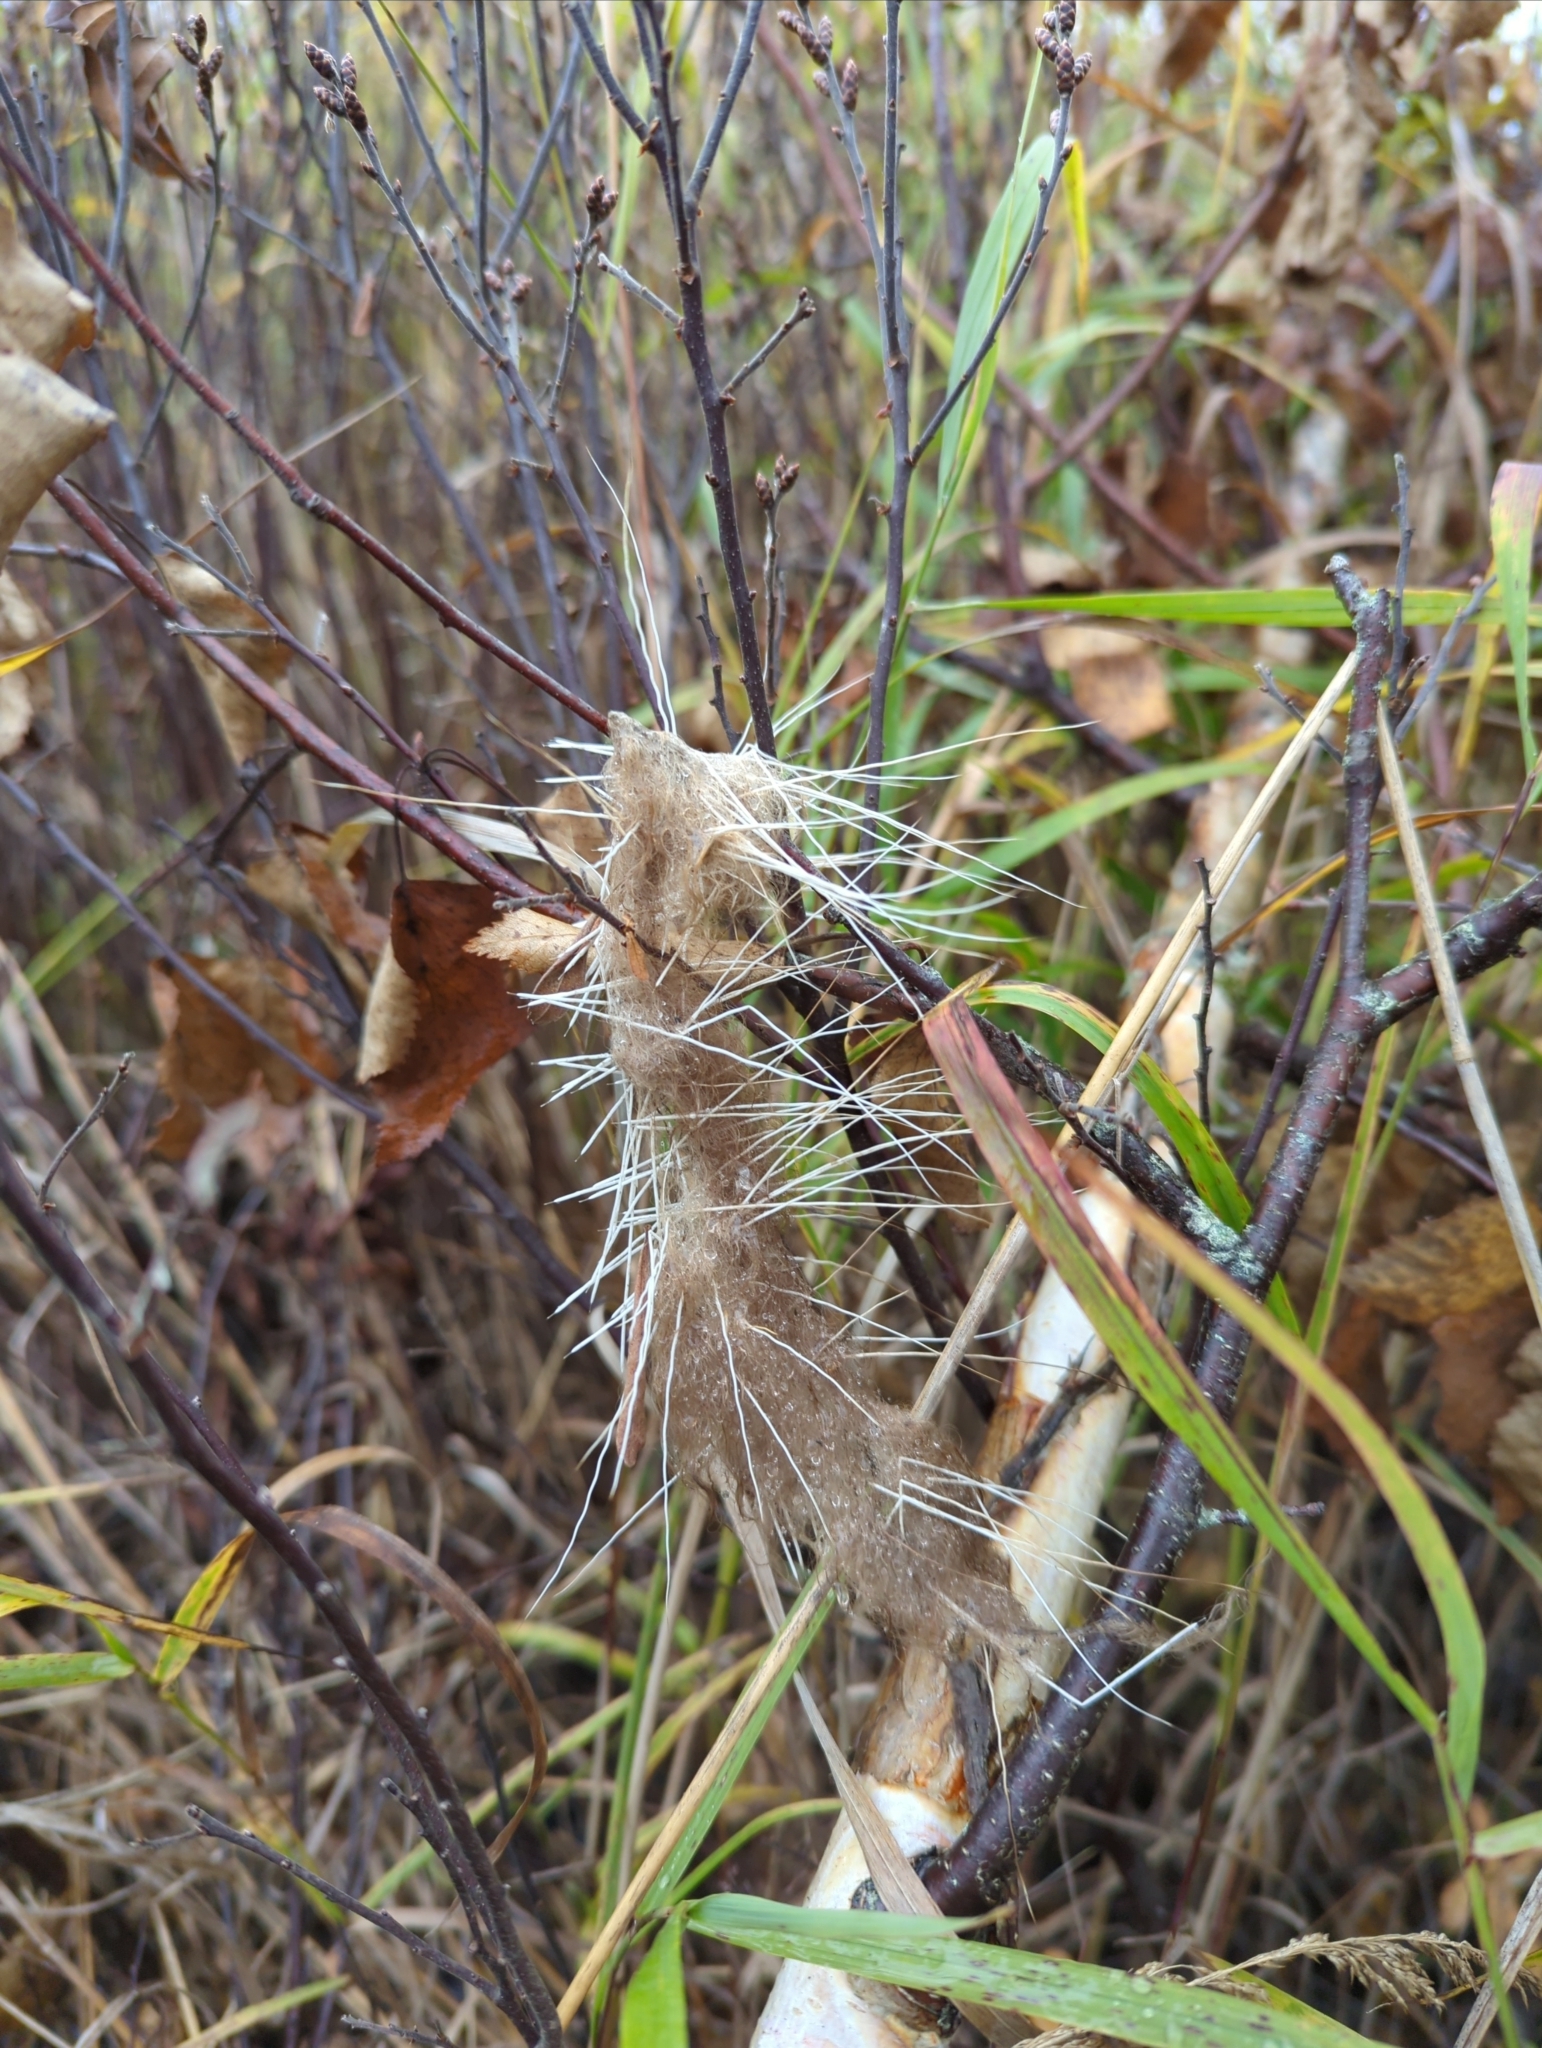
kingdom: Animalia
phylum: Chordata
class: Mammalia
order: Artiodactyla
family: Cervidae
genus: Alces
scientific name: Alces alces
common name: Moose
